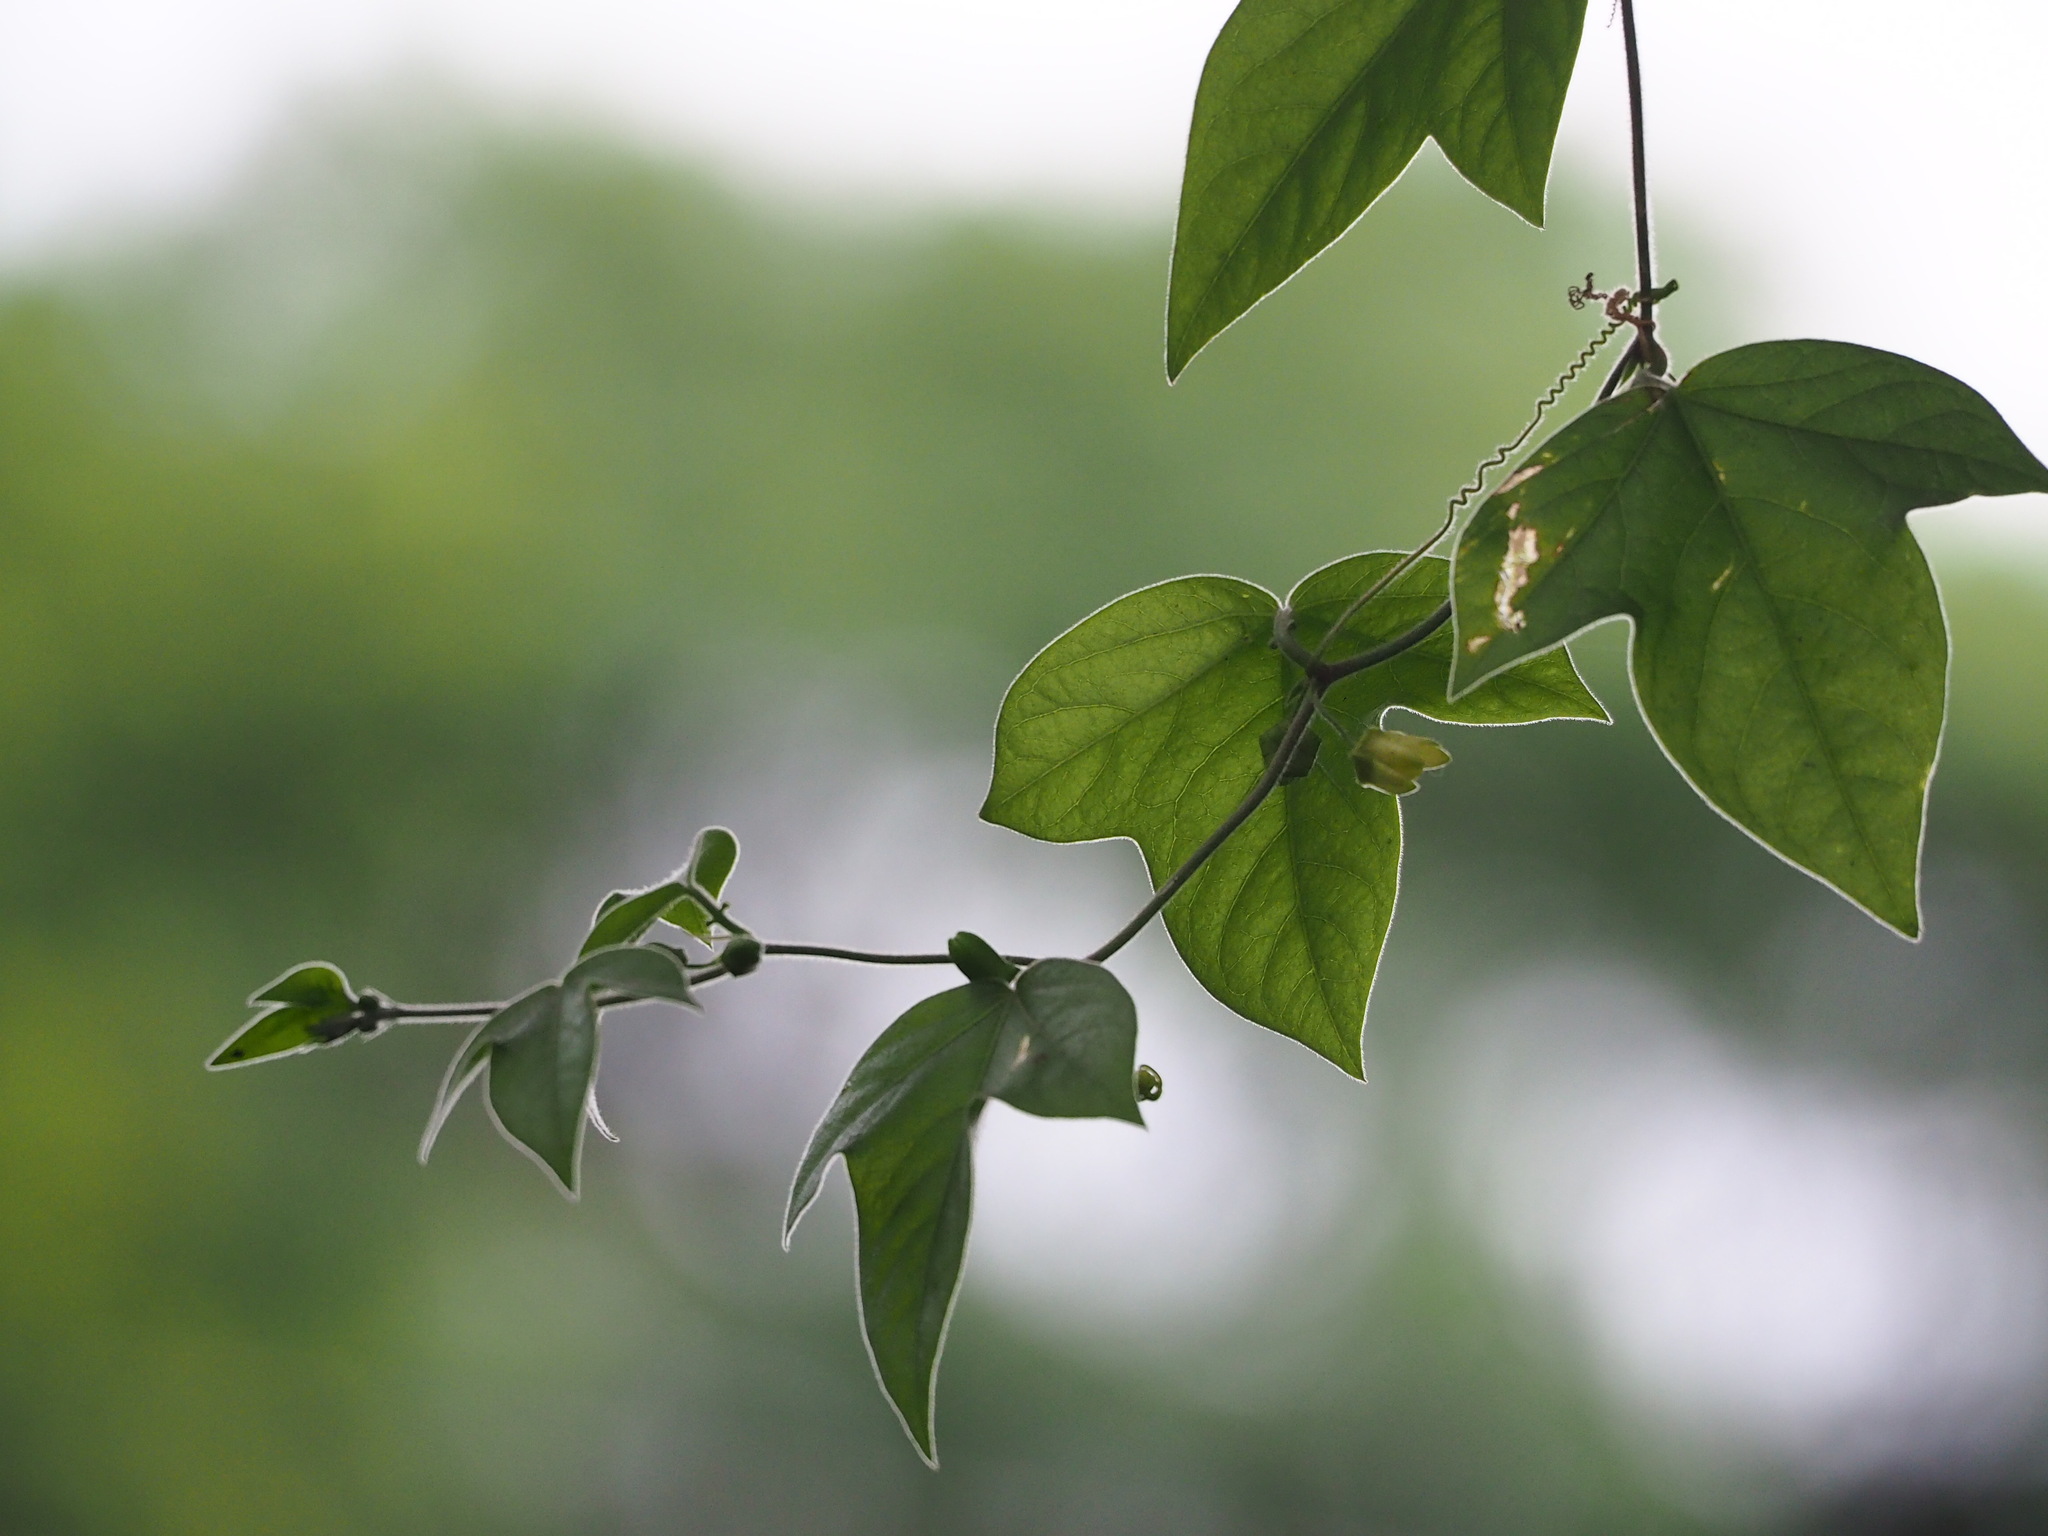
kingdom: Plantae
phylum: Tracheophyta
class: Magnoliopsida
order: Malpighiales
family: Passifloraceae
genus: Passiflora
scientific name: Passiflora suberosa
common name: Wild passionfruit
